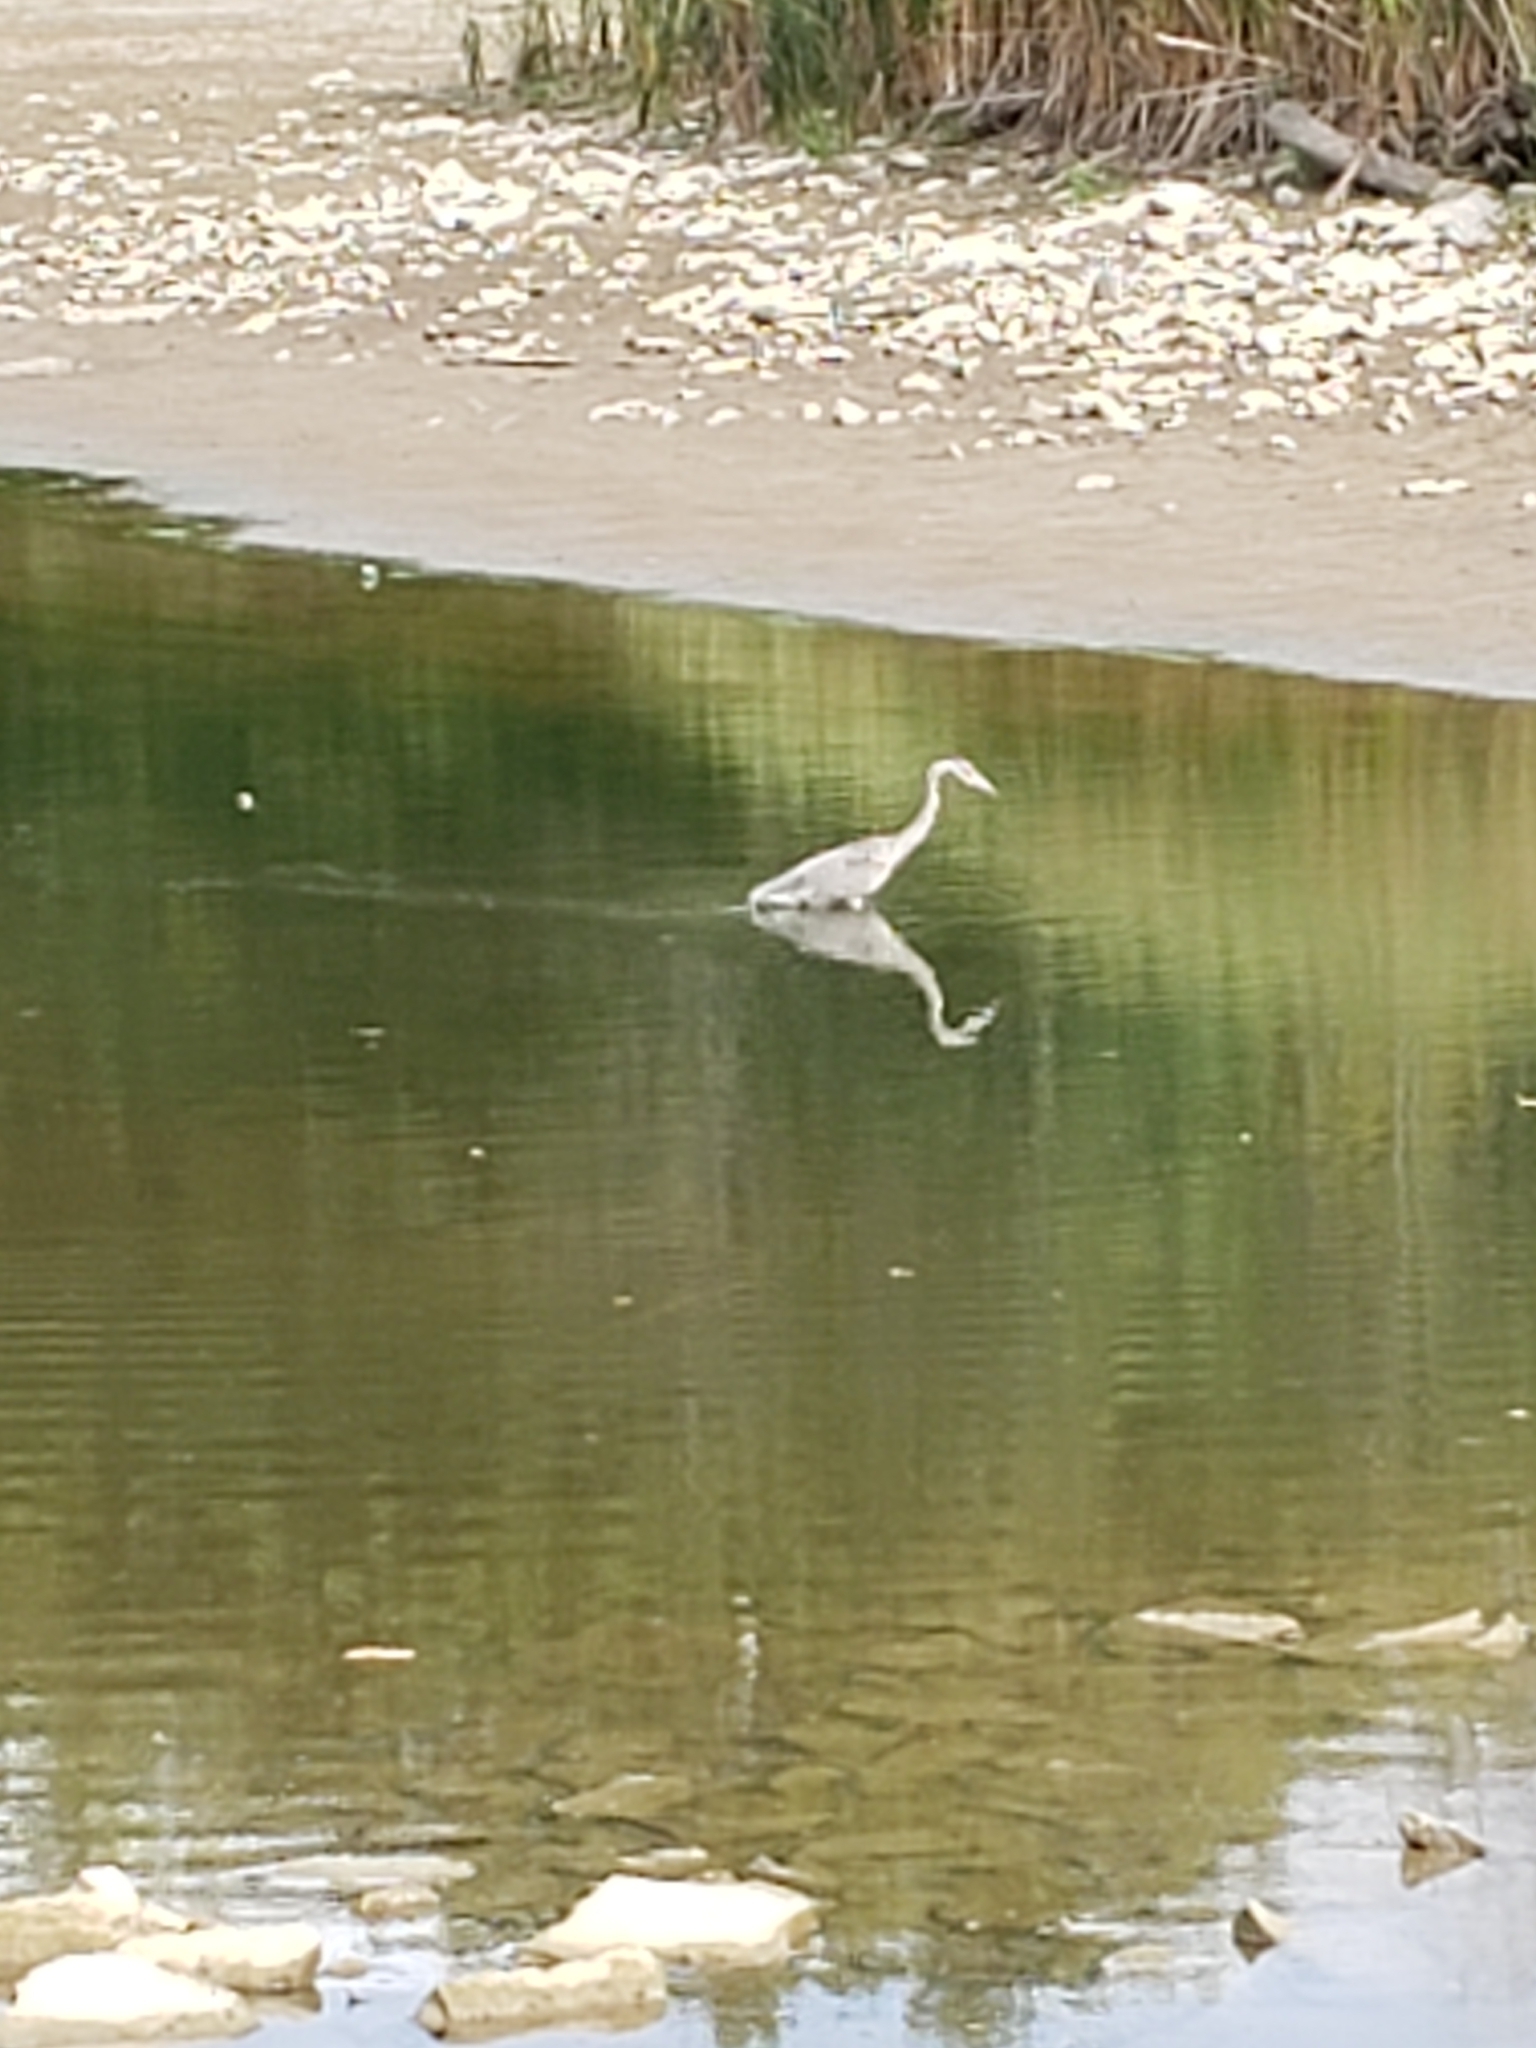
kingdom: Animalia
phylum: Chordata
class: Aves
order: Pelecaniformes
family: Ardeidae
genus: Ardea
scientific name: Ardea herodias
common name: Great blue heron
